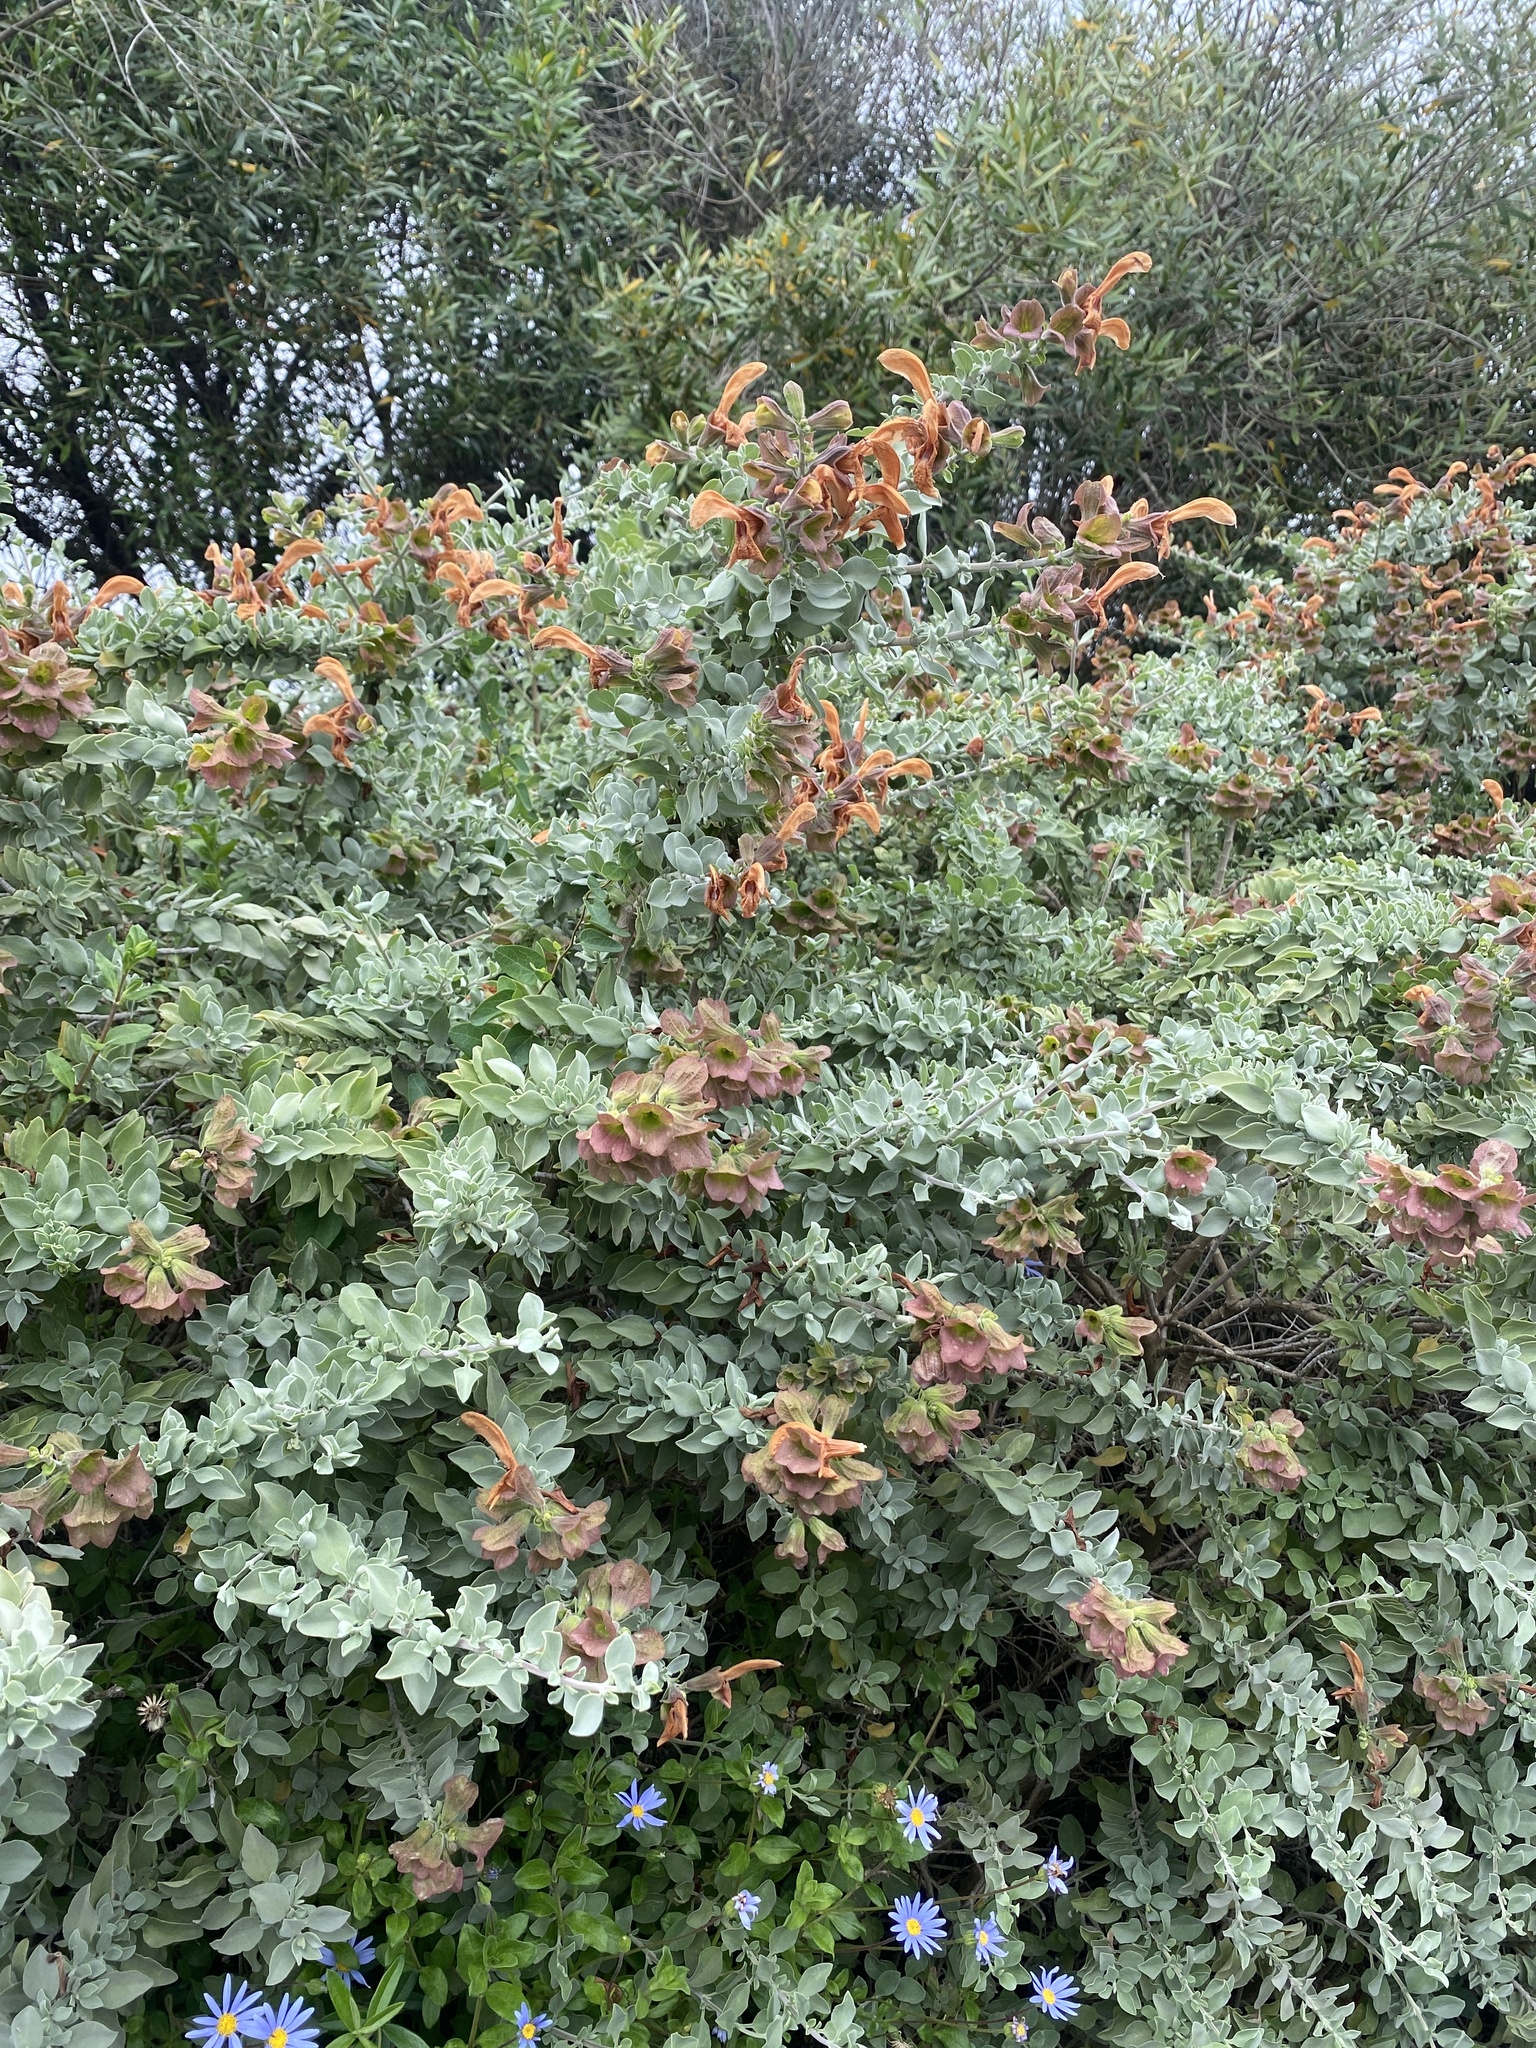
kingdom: Plantae
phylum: Tracheophyta
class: Magnoliopsida
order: Lamiales
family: Lamiaceae
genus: Salvia
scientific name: Salvia aurea
